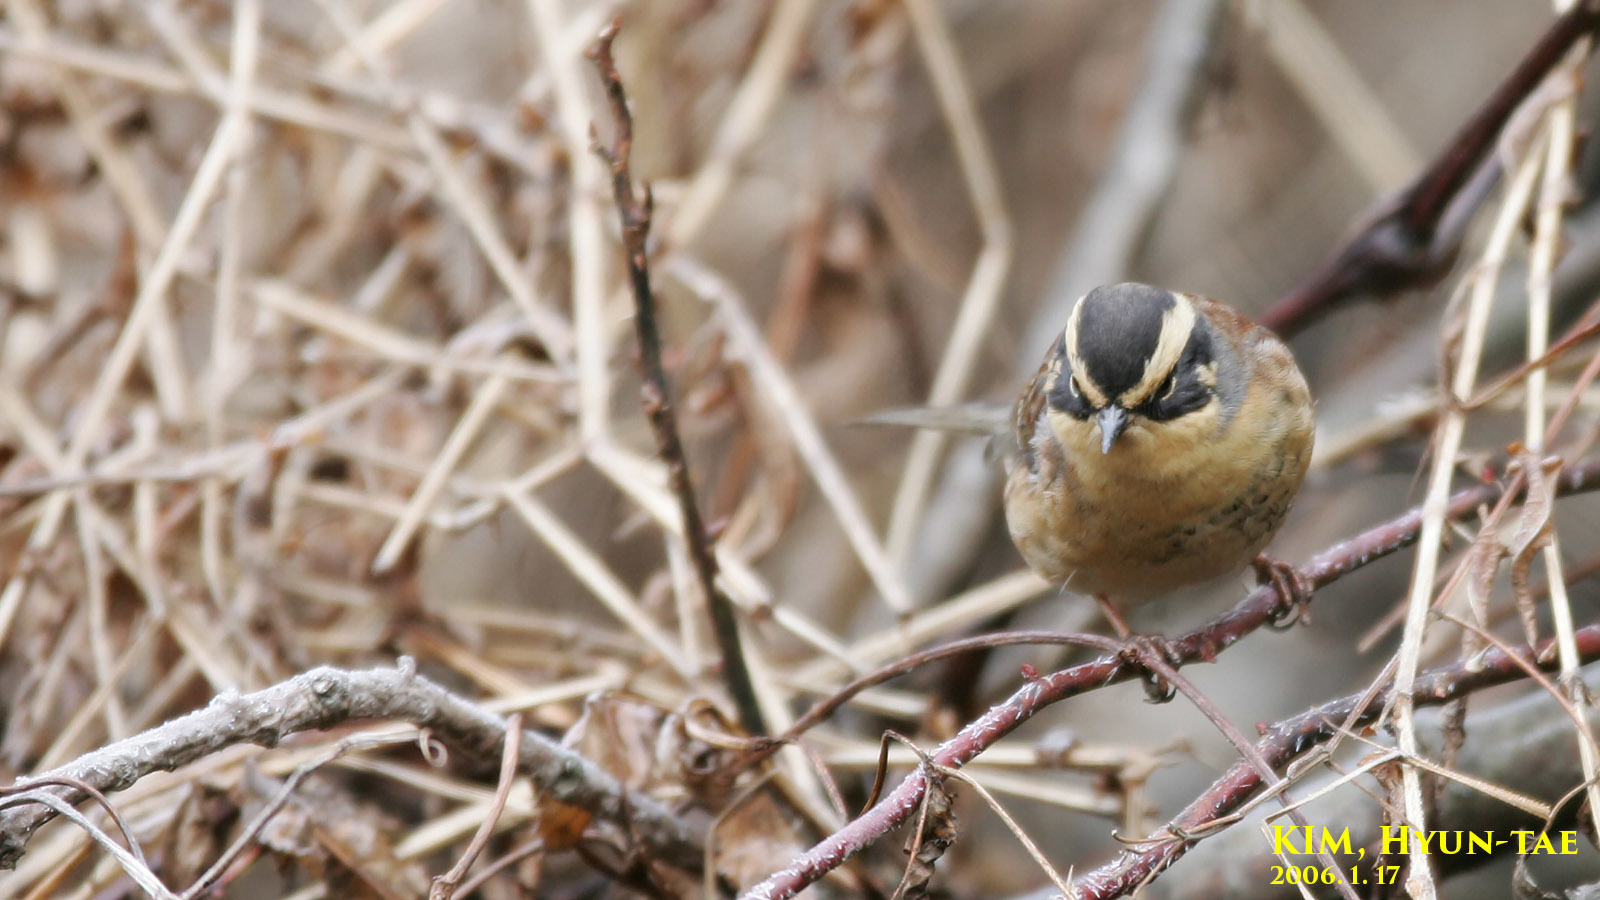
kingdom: Animalia
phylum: Chordata
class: Aves
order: Passeriformes
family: Prunellidae
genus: Prunella
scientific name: Prunella montanella
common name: Siberian accentor
